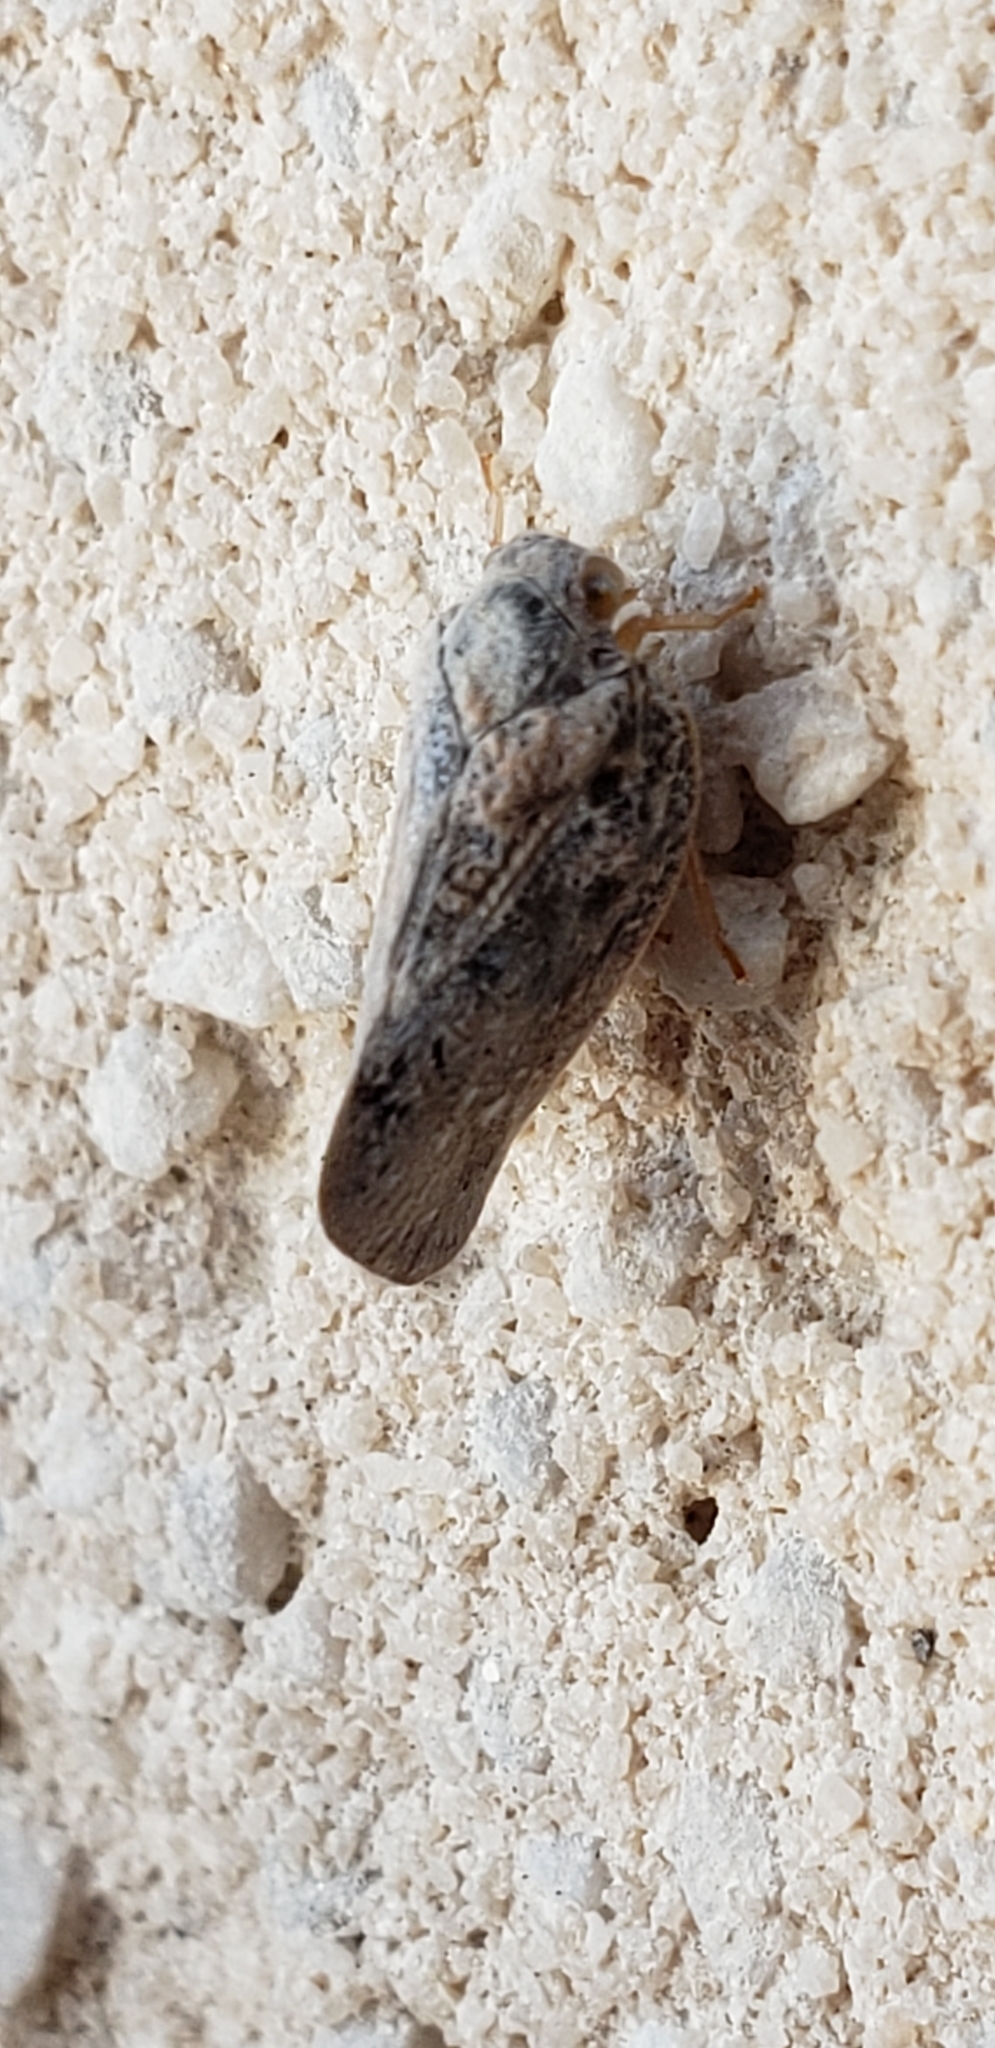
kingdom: Animalia
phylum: Arthropoda
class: Insecta
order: Hemiptera
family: Flatidae
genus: Metcalfa
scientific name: Metcalfa pruinosa
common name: Citrus flatid planthopper
